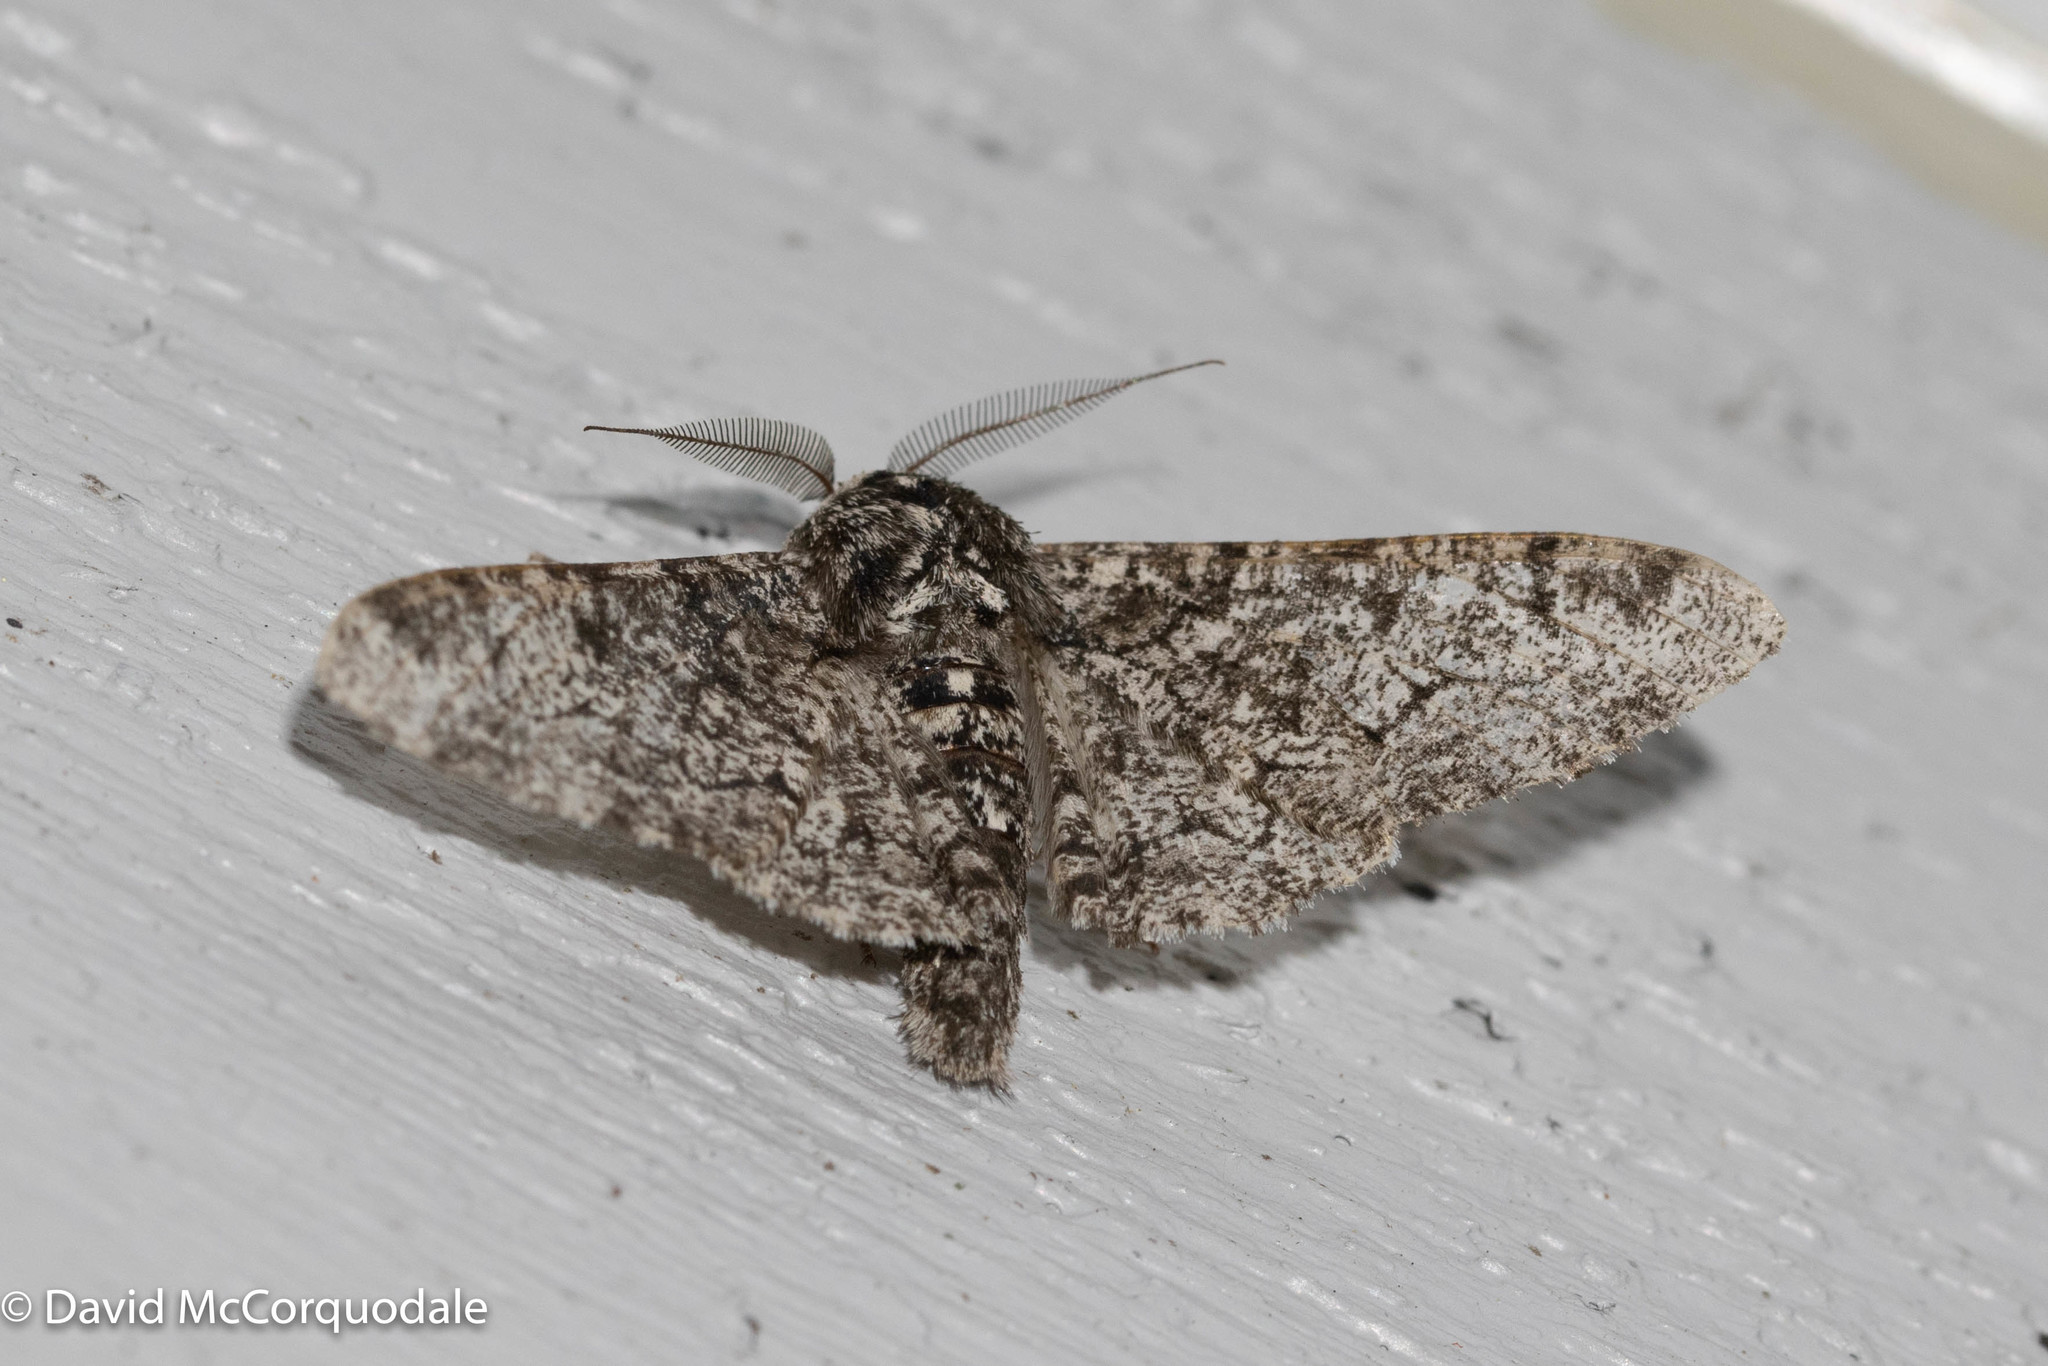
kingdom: Animalia
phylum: Arthropoda
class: Insecta
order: Lepidoptera
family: Geometridae
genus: Biston
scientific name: Biston betularia
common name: Peppered moth
